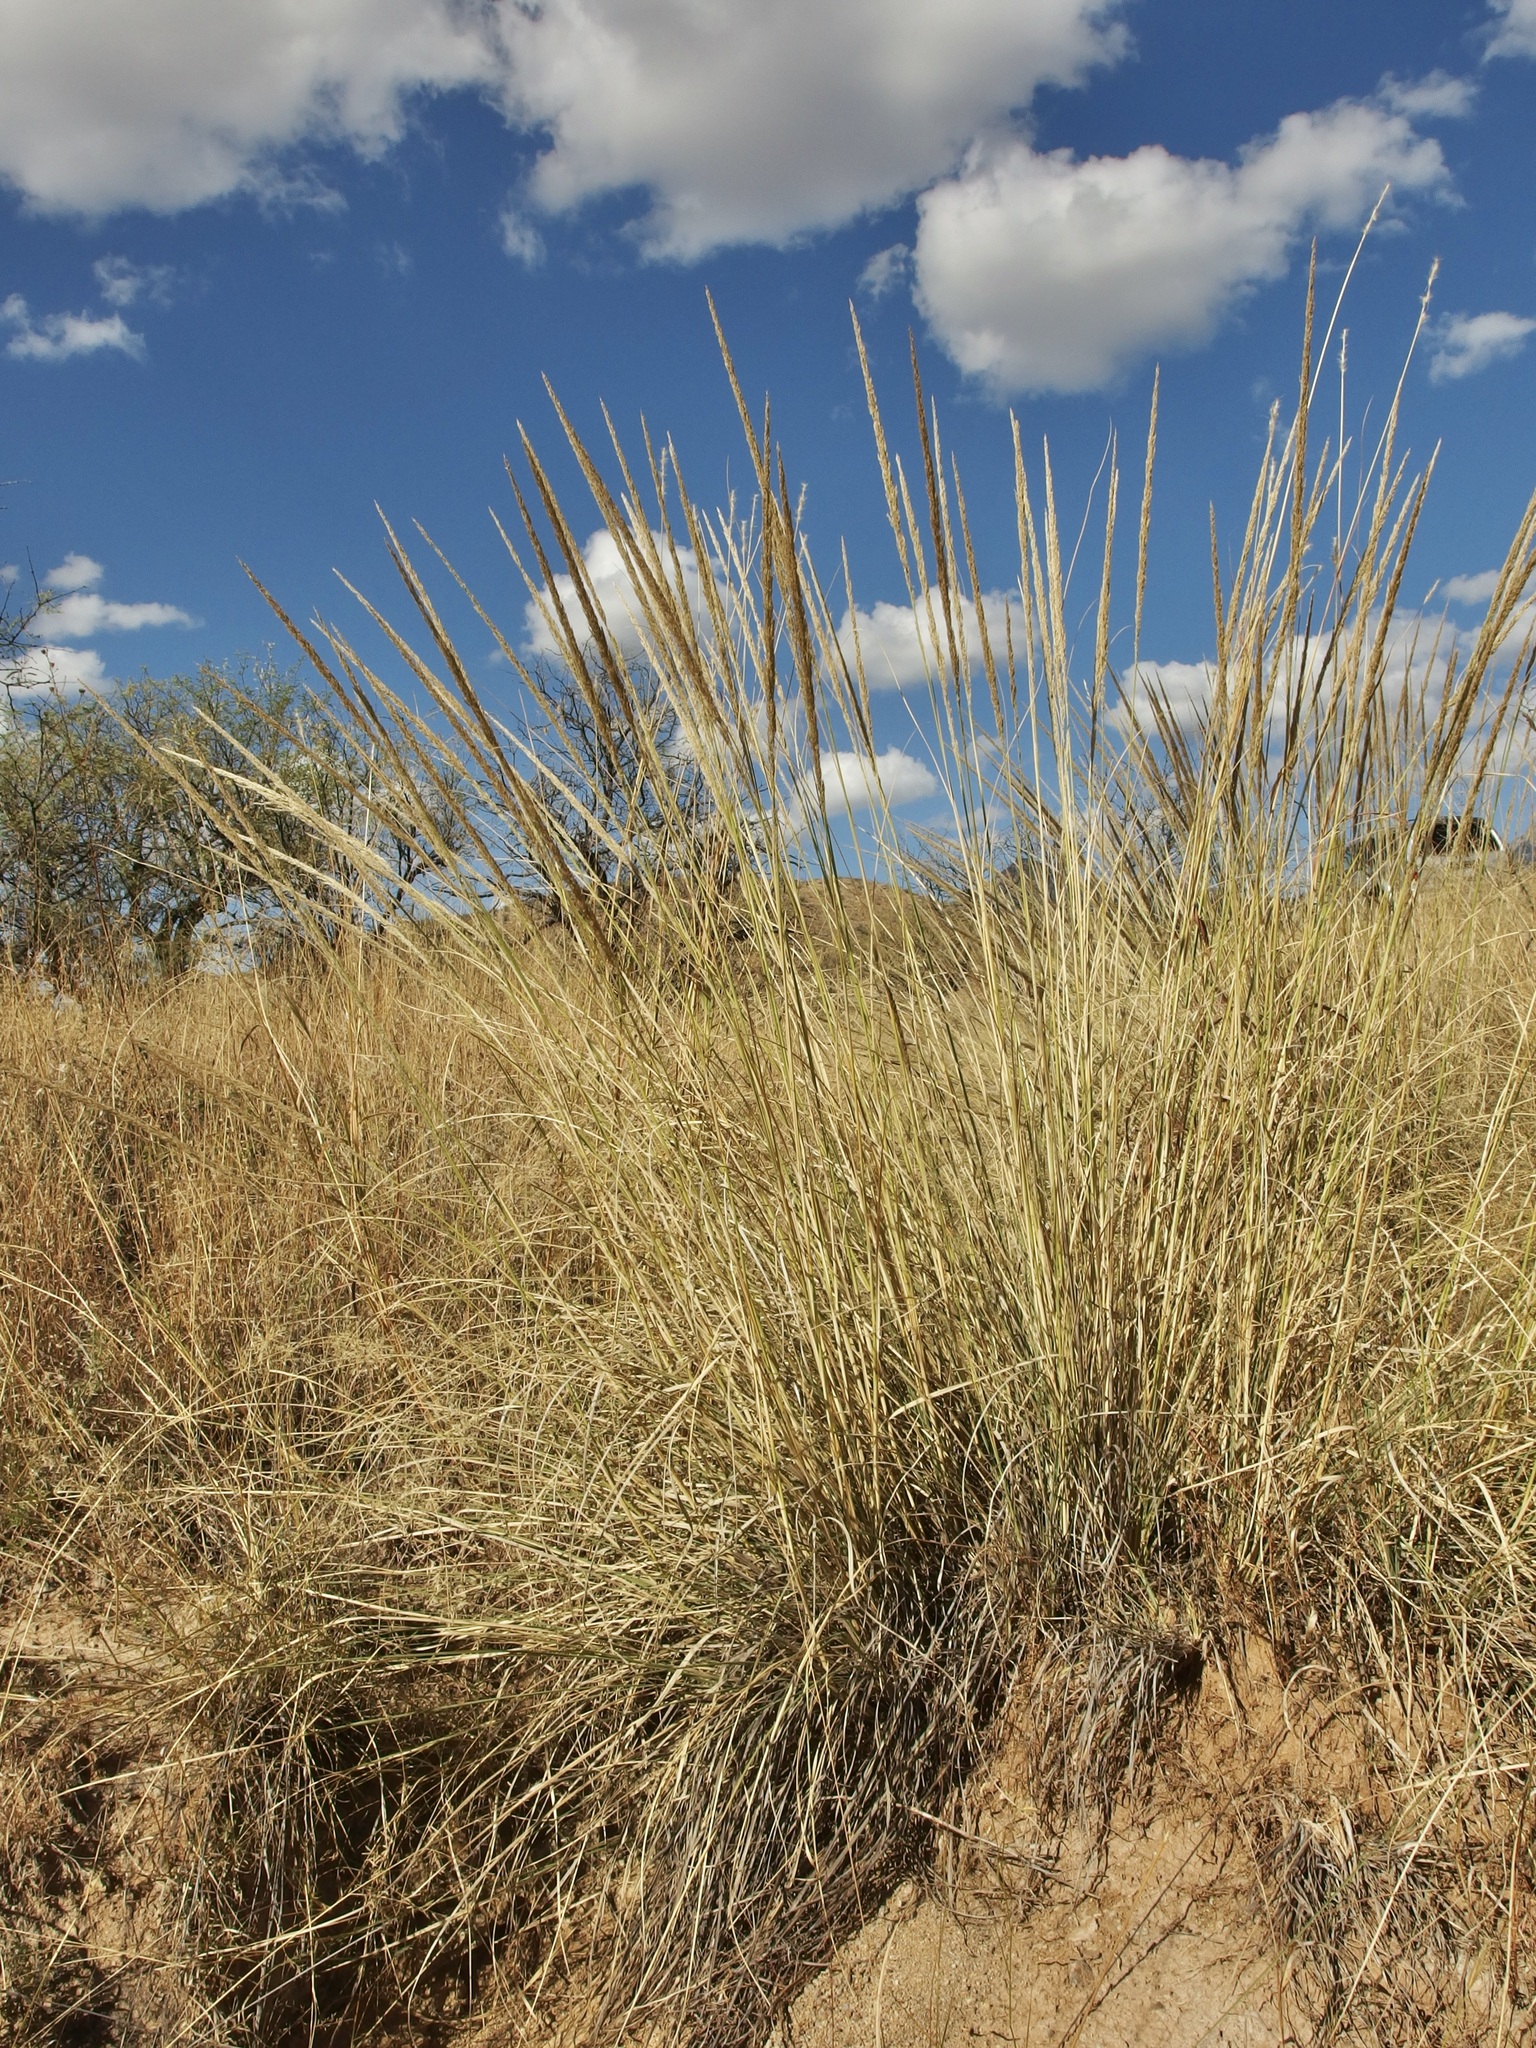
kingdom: Plantae
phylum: Tracheophyta
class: Liliopsida
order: Poales
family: Poaceae
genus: Muhlenbergia
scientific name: Muhlenbergia longiligula
